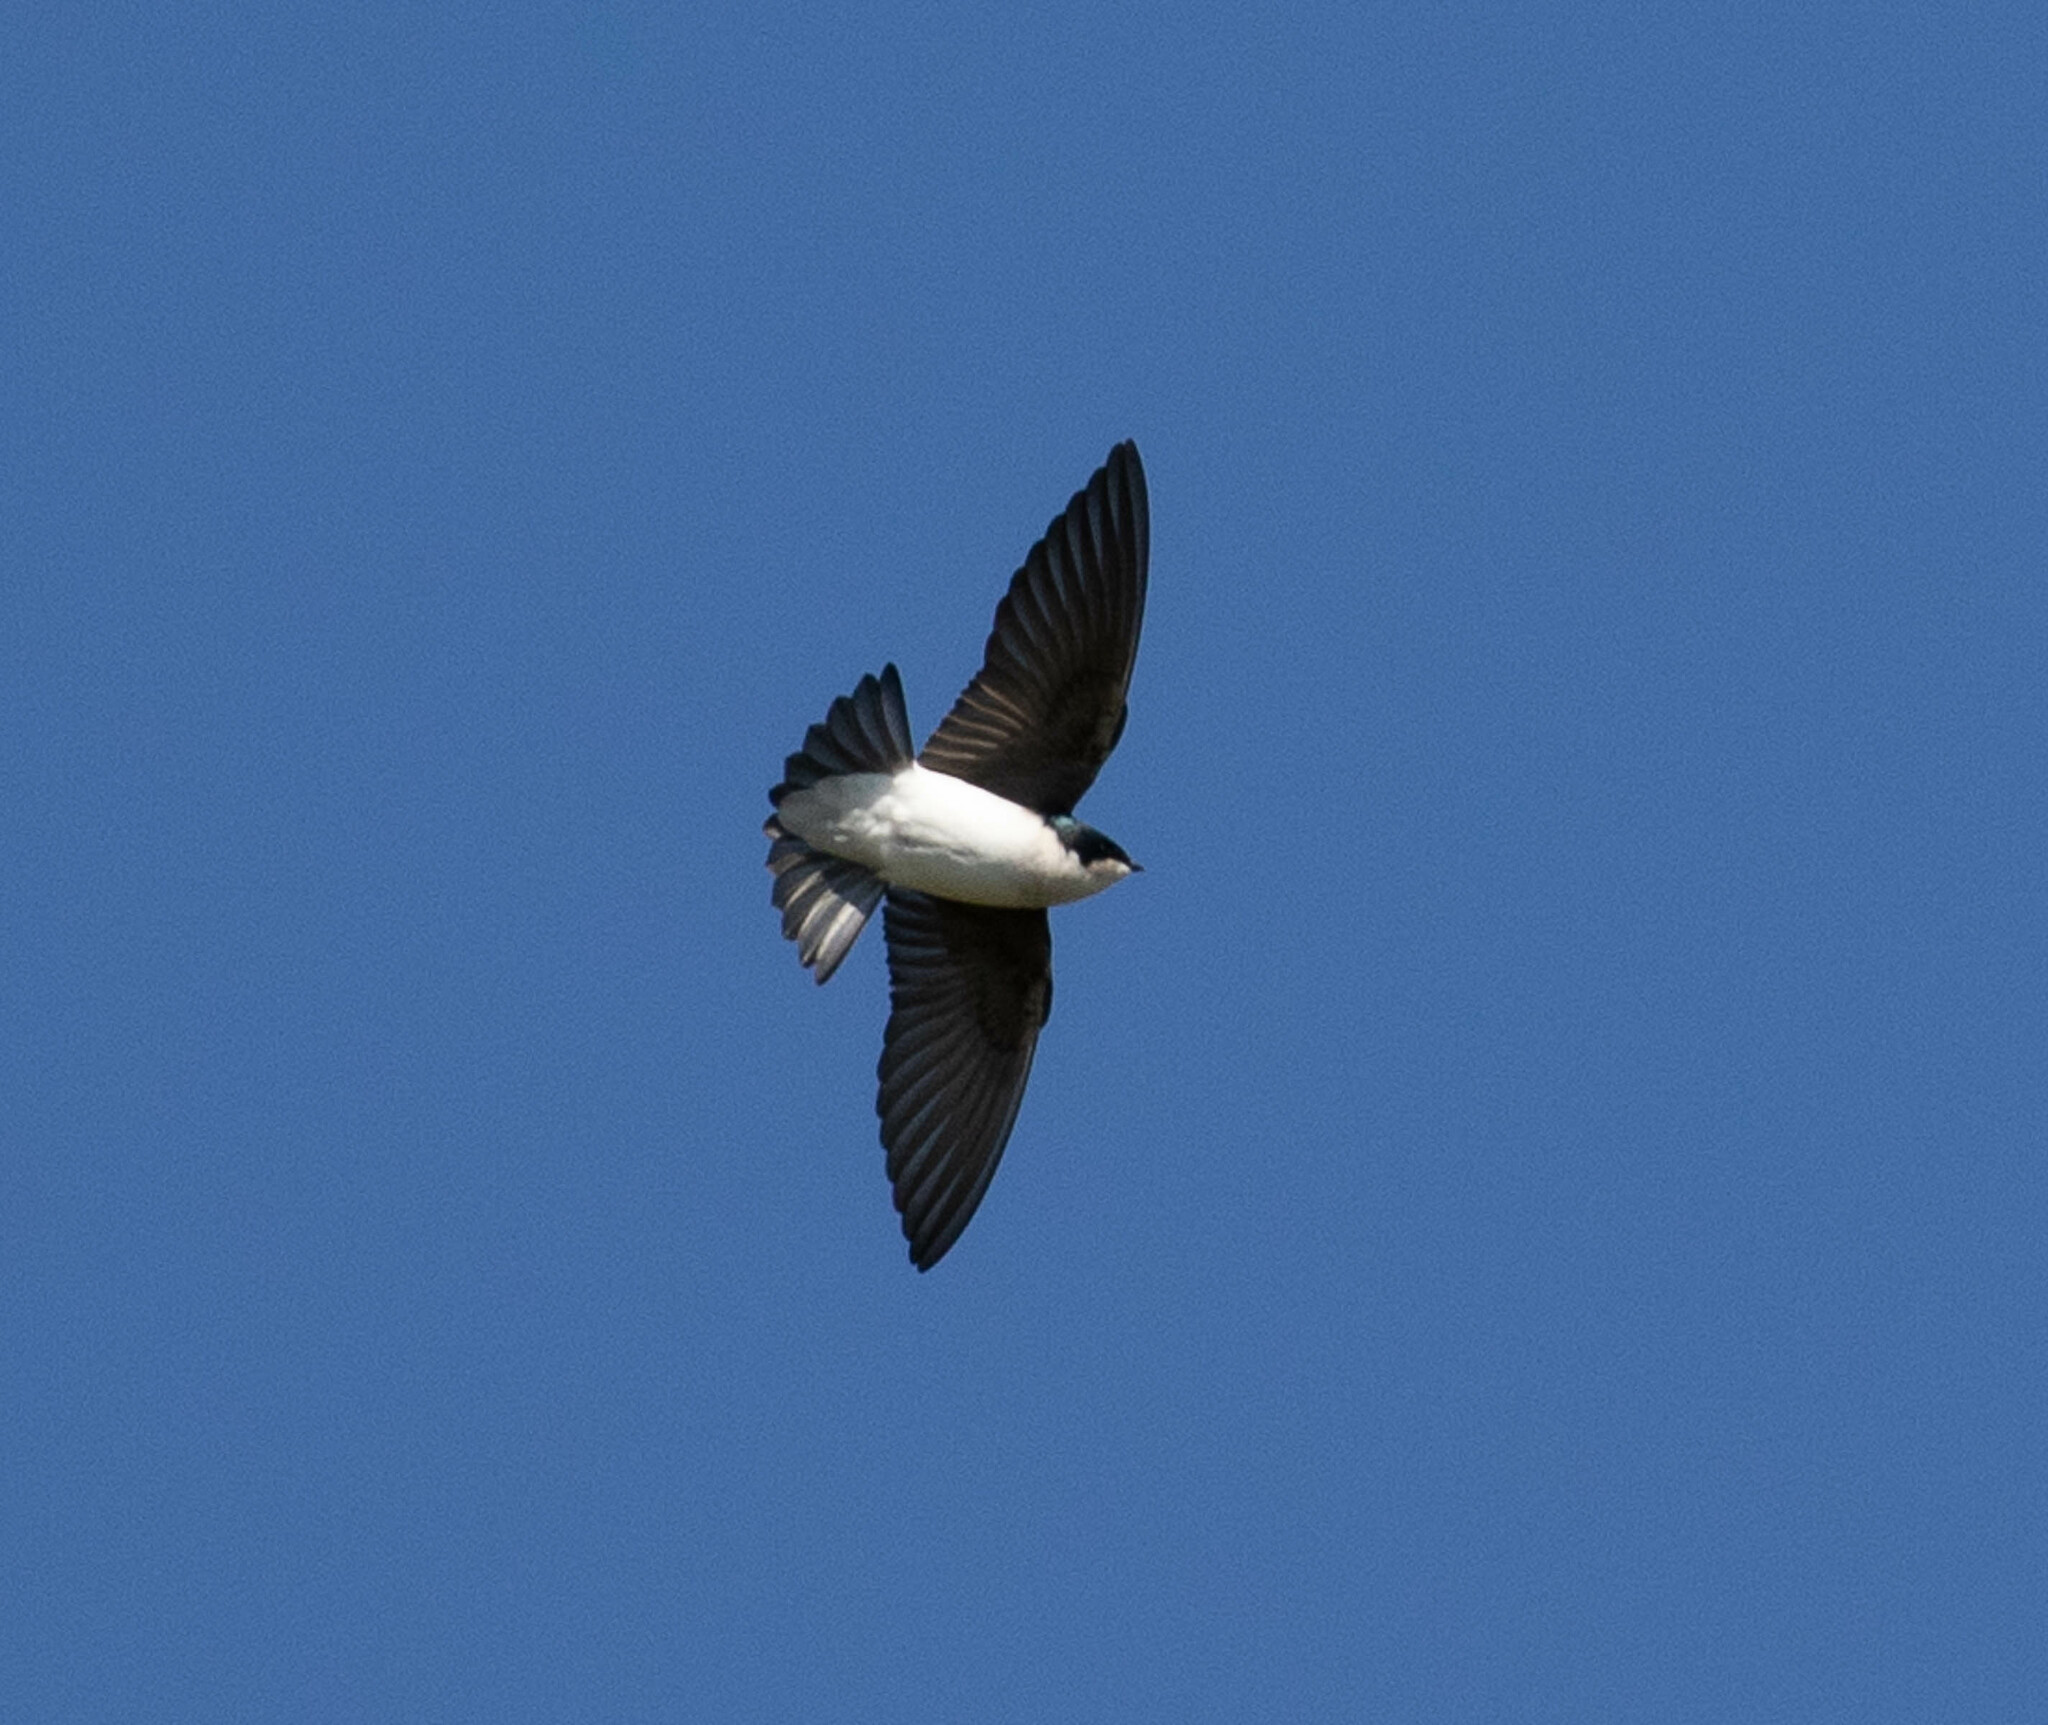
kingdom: Animalia
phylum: Chordata
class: Aves
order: Passeriformes
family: Hirundinidae
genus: Tachycineta
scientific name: Tachycineta bicolor
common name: Tree swallow
